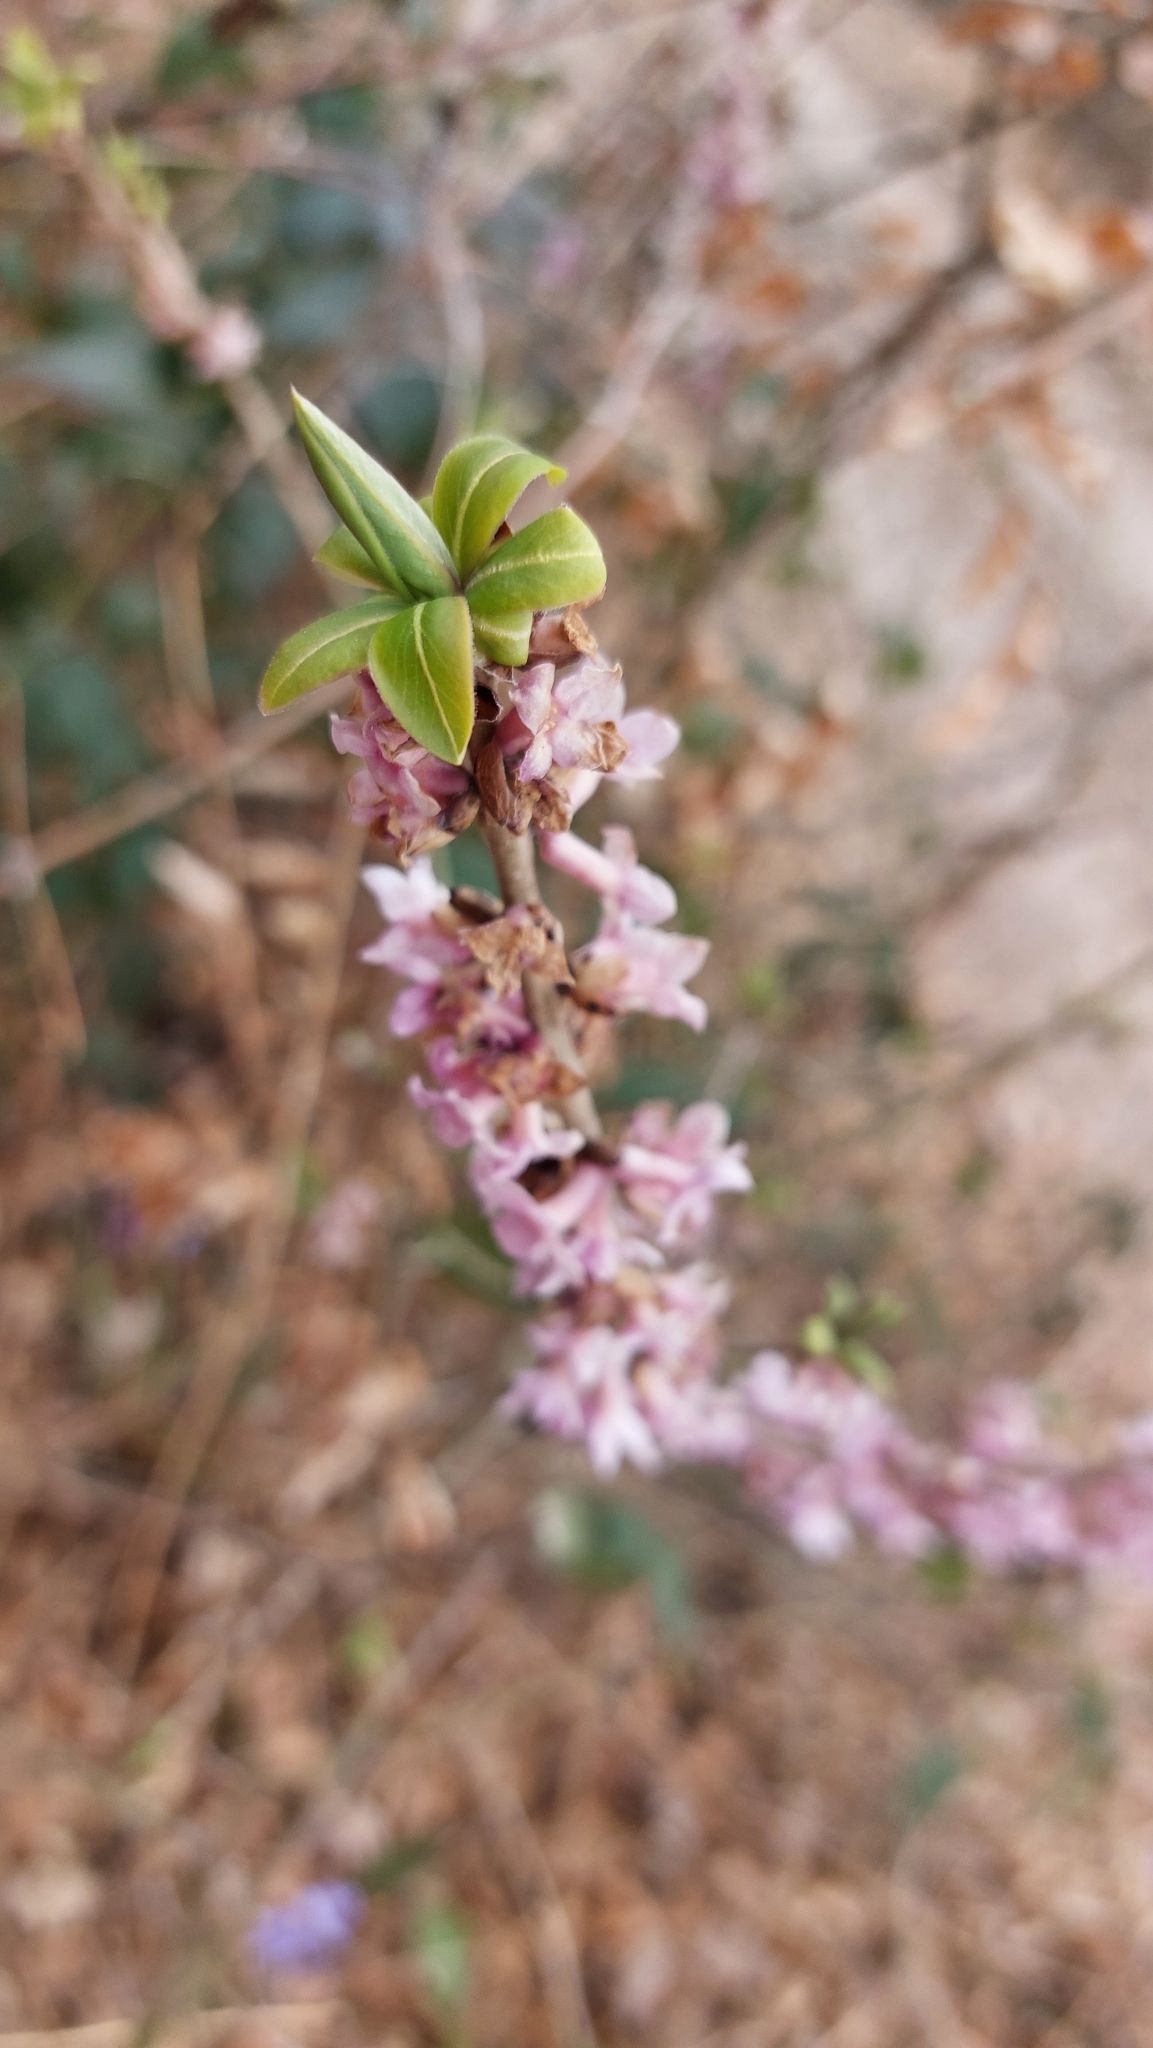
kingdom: Plantae
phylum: Tracheophyta
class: Magnoliopsida
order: Malvales
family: Thymelaeaceae
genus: Daphne
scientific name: Daphne mezereum
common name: Mezereon
